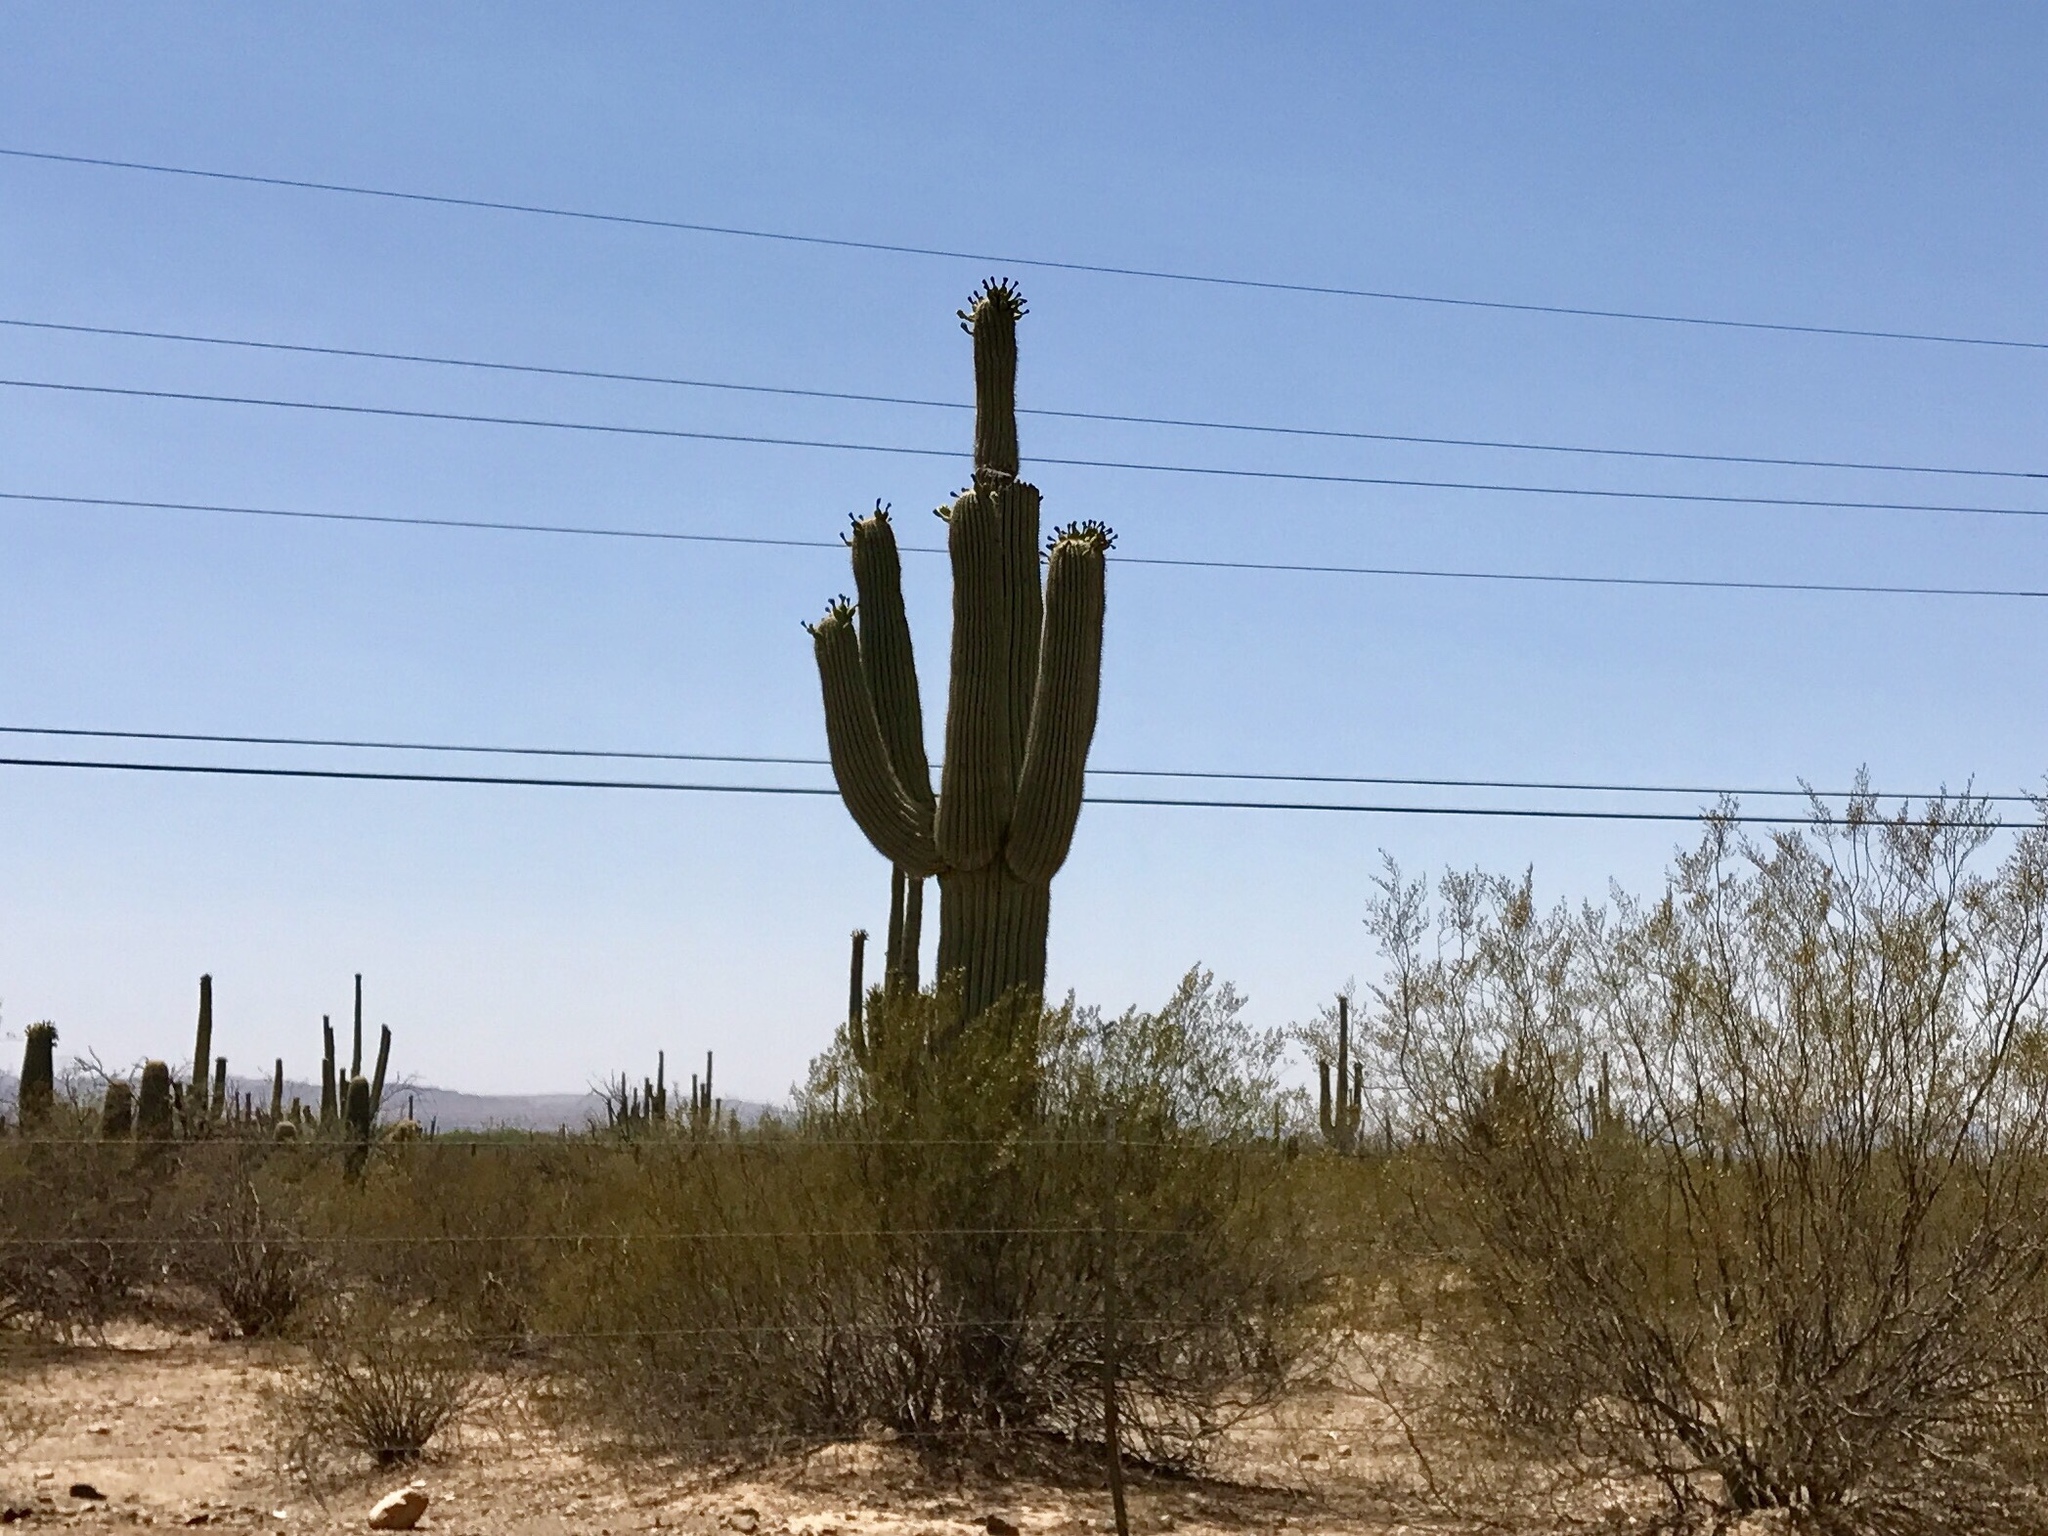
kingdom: Plantae
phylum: Tracheophyta
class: Magnoliopsida
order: Caryophyllales
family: Cactaceae
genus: Carnegiea
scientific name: Carnegiea gigantea
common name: Saguaro
